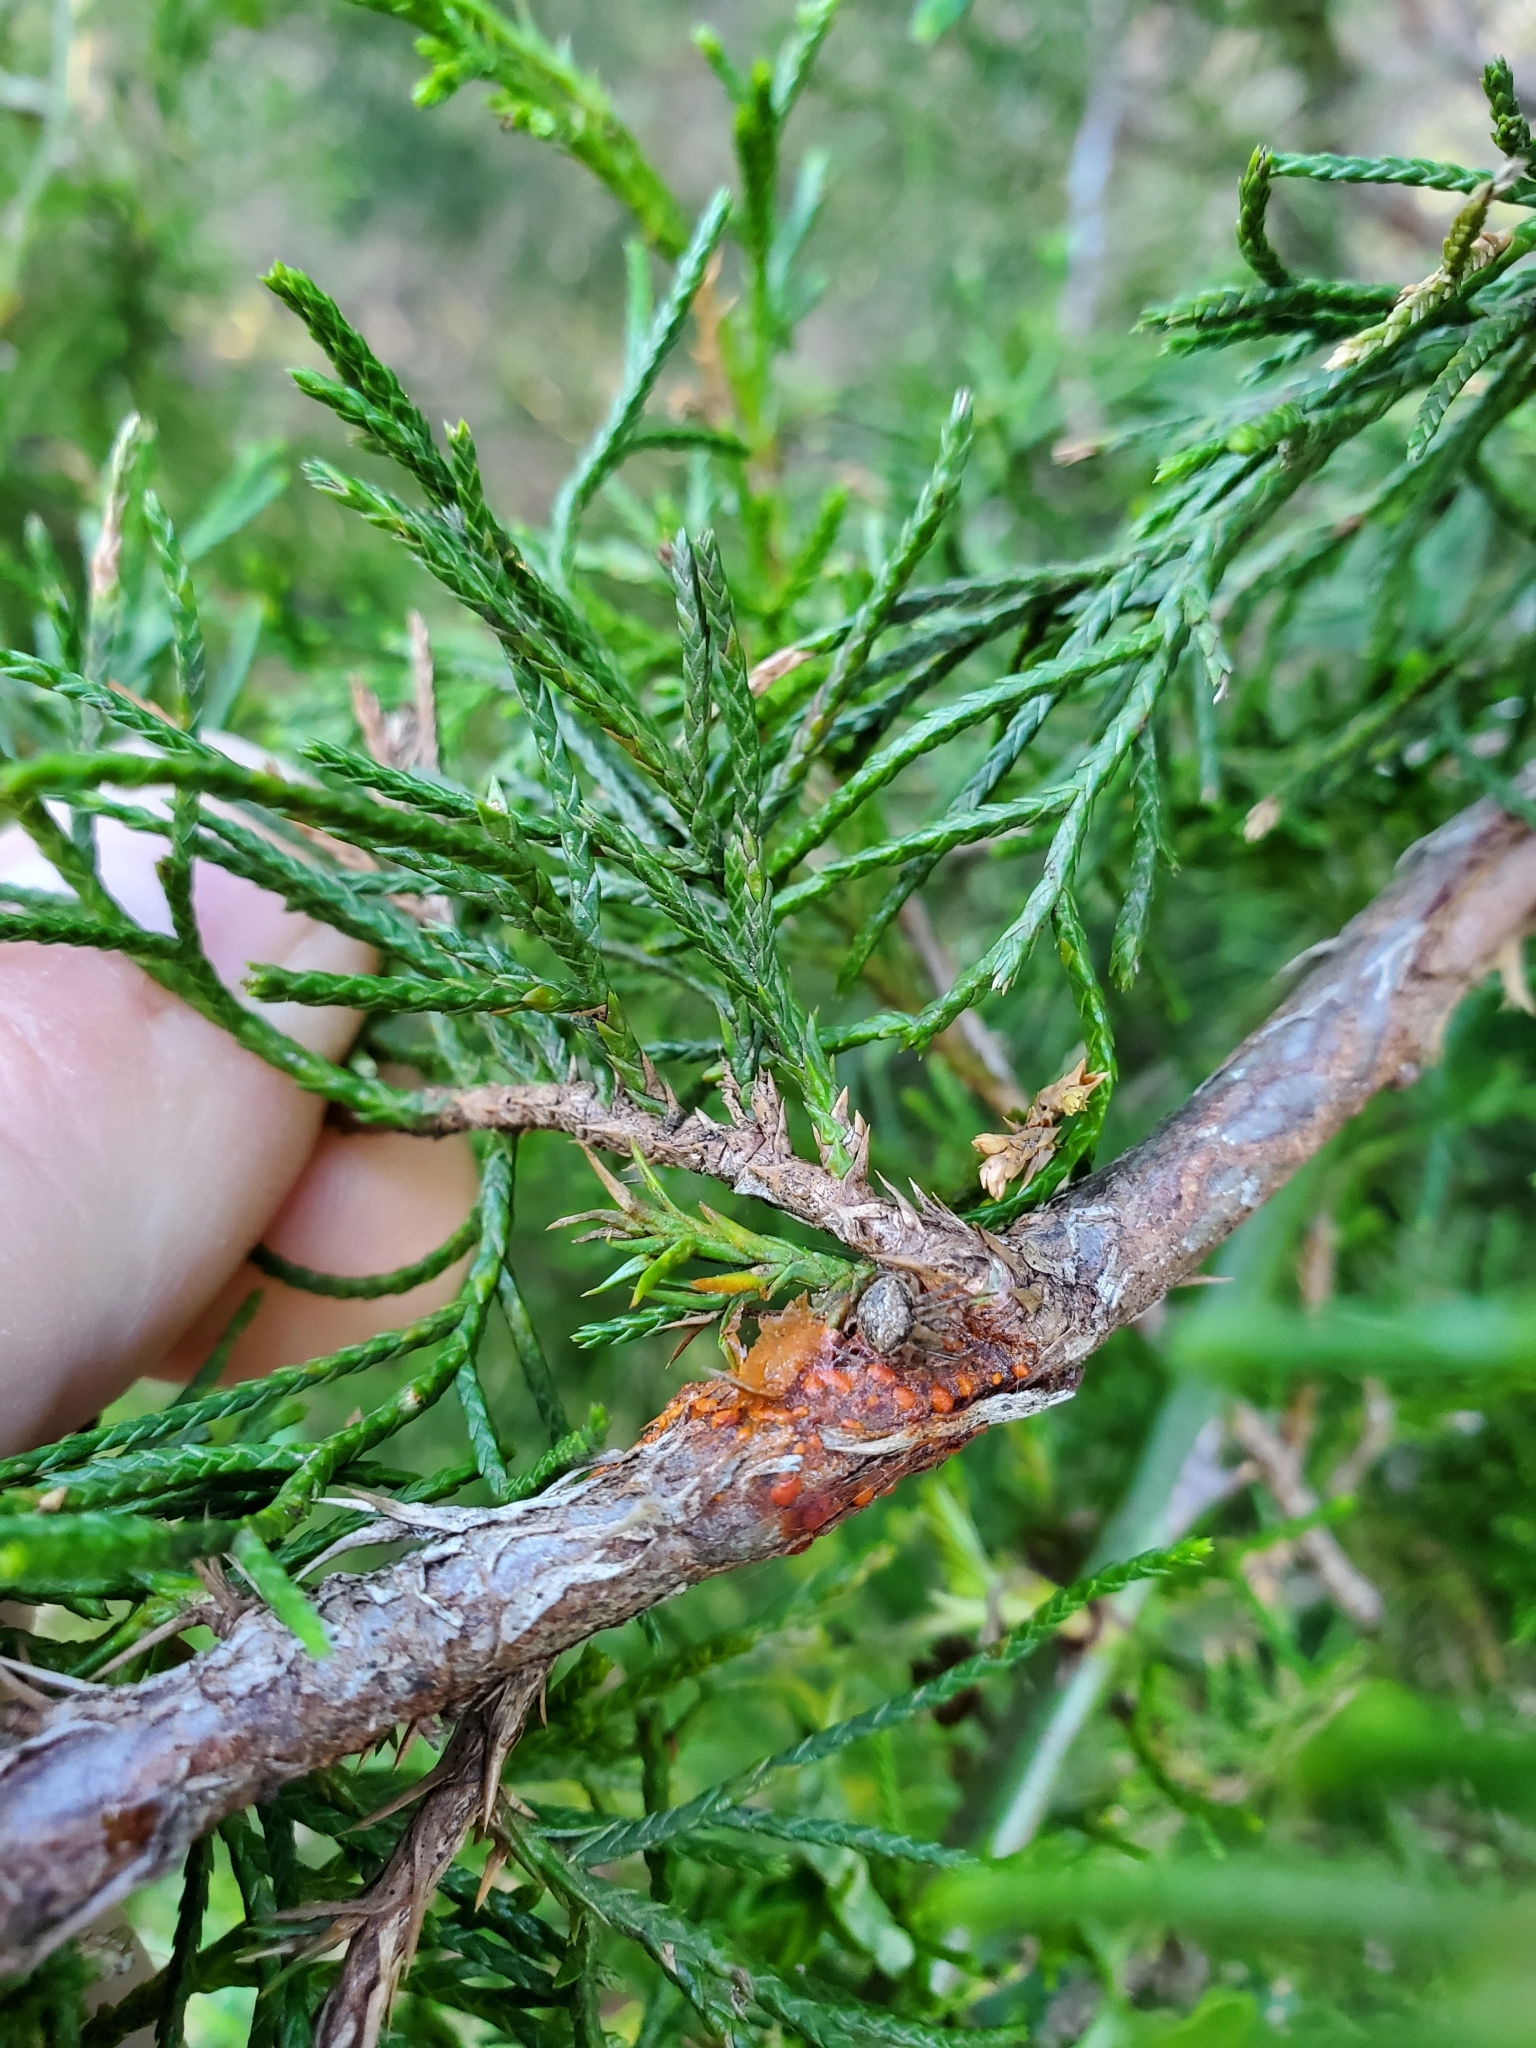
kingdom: Fungi
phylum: Basidiomycota
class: Pucciniomycetes
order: Pucciniales
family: Gymnosporangiaceae
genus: Gymnosporangium
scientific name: Gymnosporangium juniperi-virginianae
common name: Juniper-apple rust
